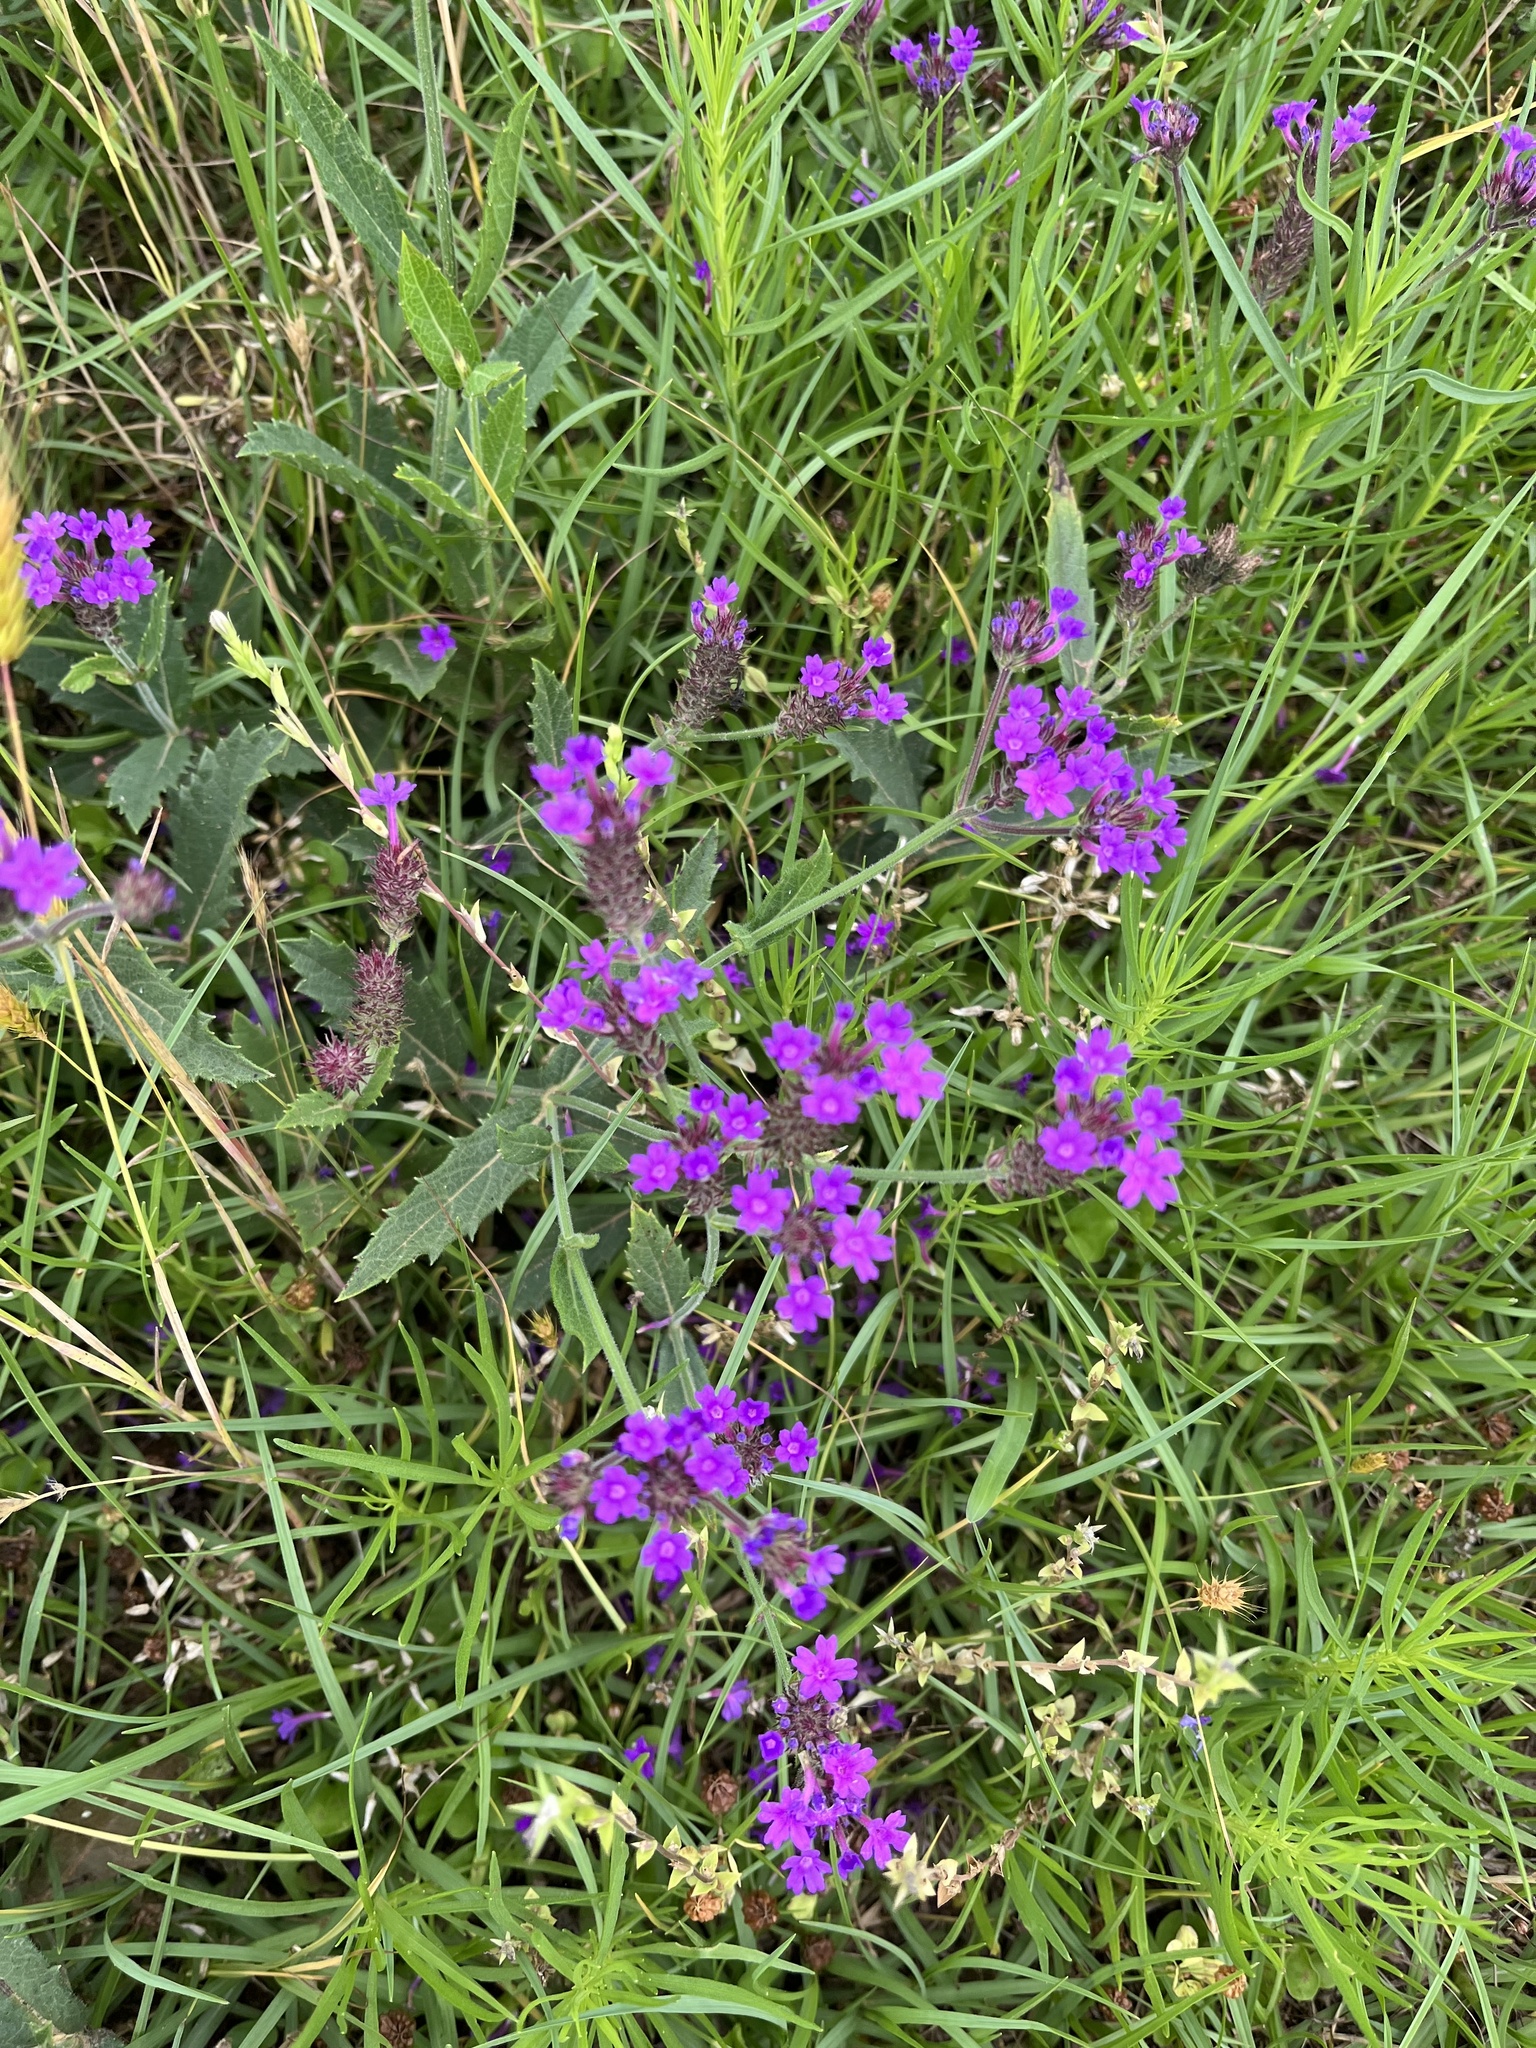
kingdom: Plantae
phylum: Tracheophyta
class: Magnoliopsida
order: Lamiales
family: Verbenaceae
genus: Verbena
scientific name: Verbena rigida
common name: Slender vervain
